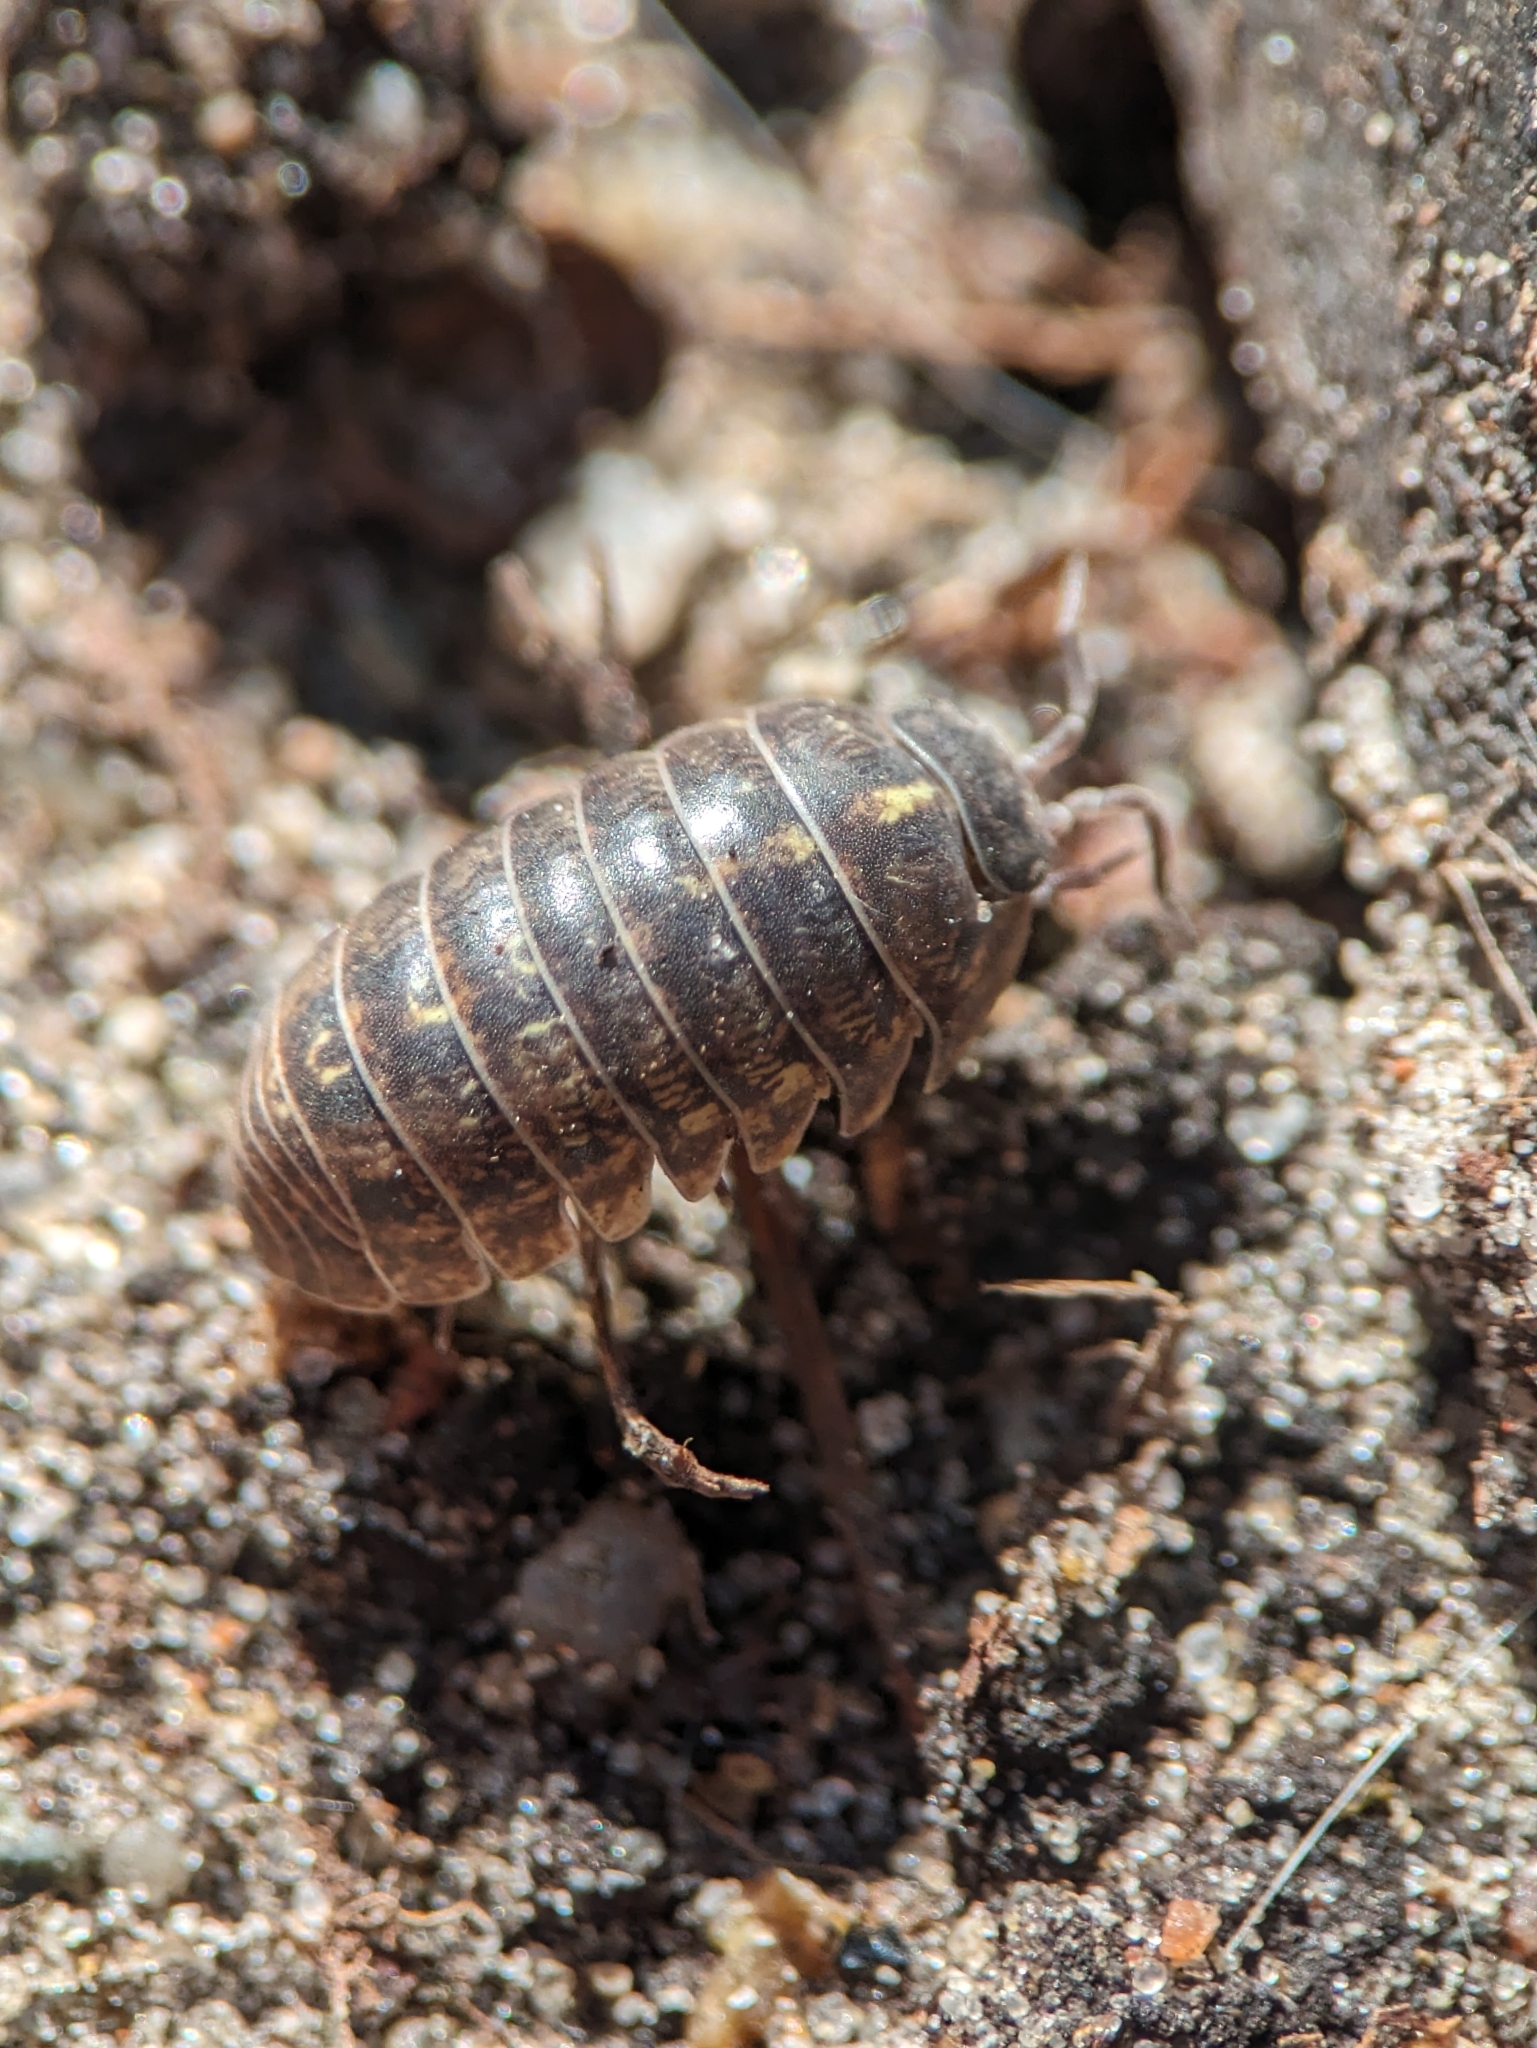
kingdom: Animalia
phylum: Arthropoda
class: Malacostraca
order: Isopoda
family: Armadillidiidae
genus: Armadillidium
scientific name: Armadillidium vulgare
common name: Common pill woodlouse
